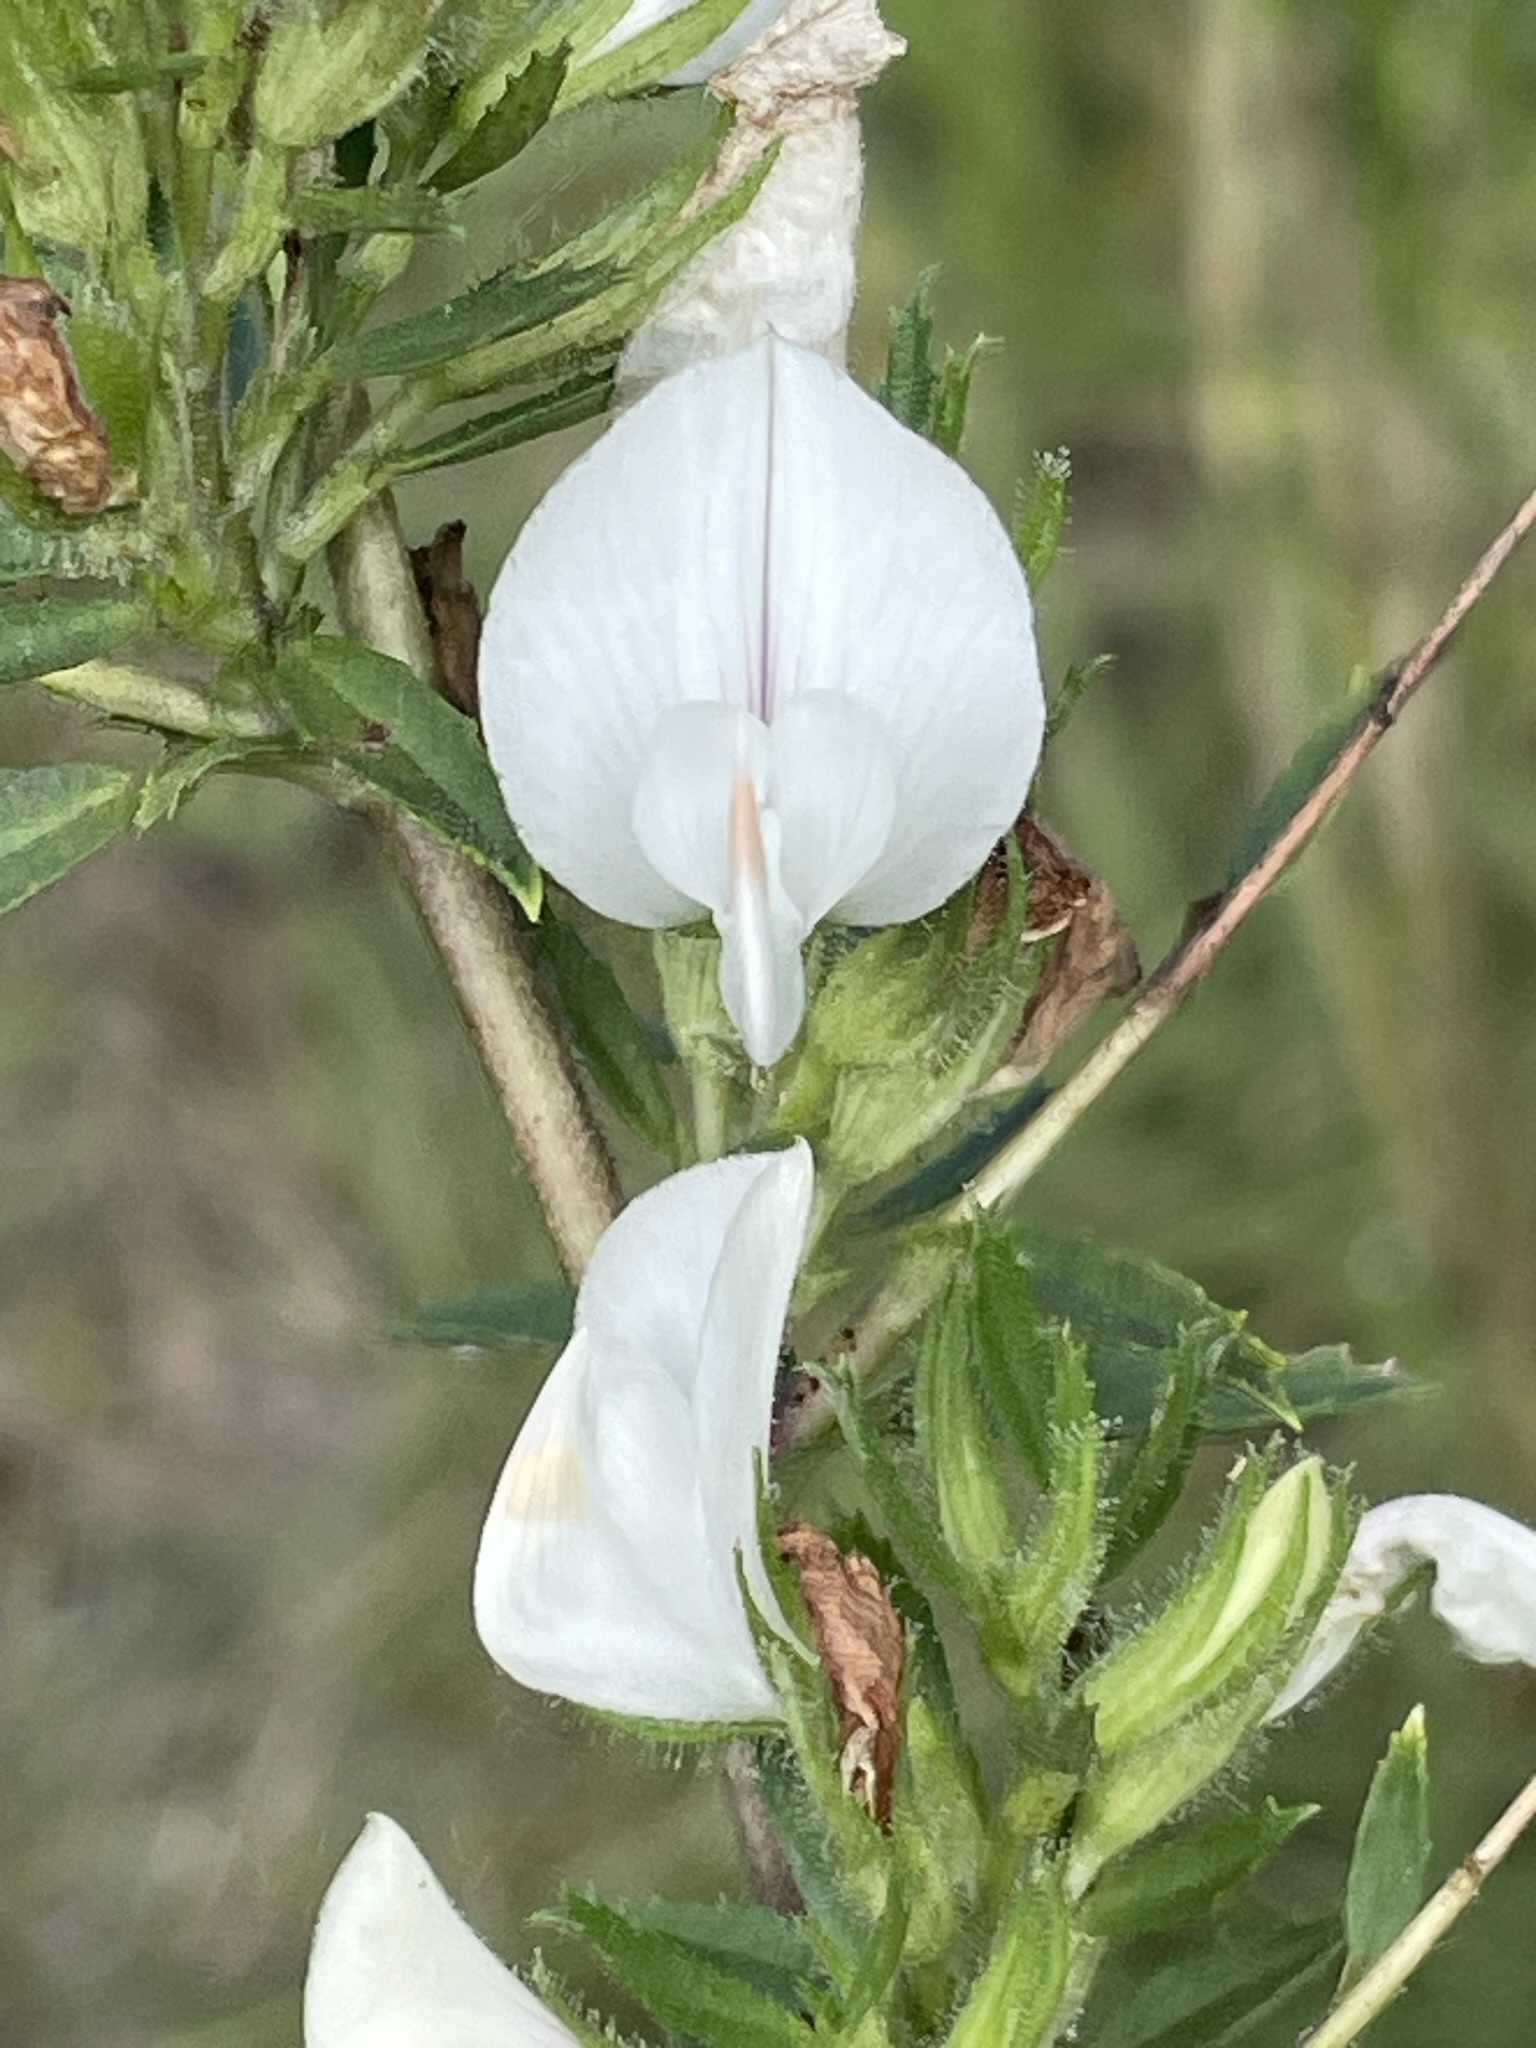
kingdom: Plantae
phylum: Tracheophyta
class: Magnoliopsida
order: Fabales
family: Fabaceae
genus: Ononis
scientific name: Ononis spinosa
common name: Spiny restharrow
